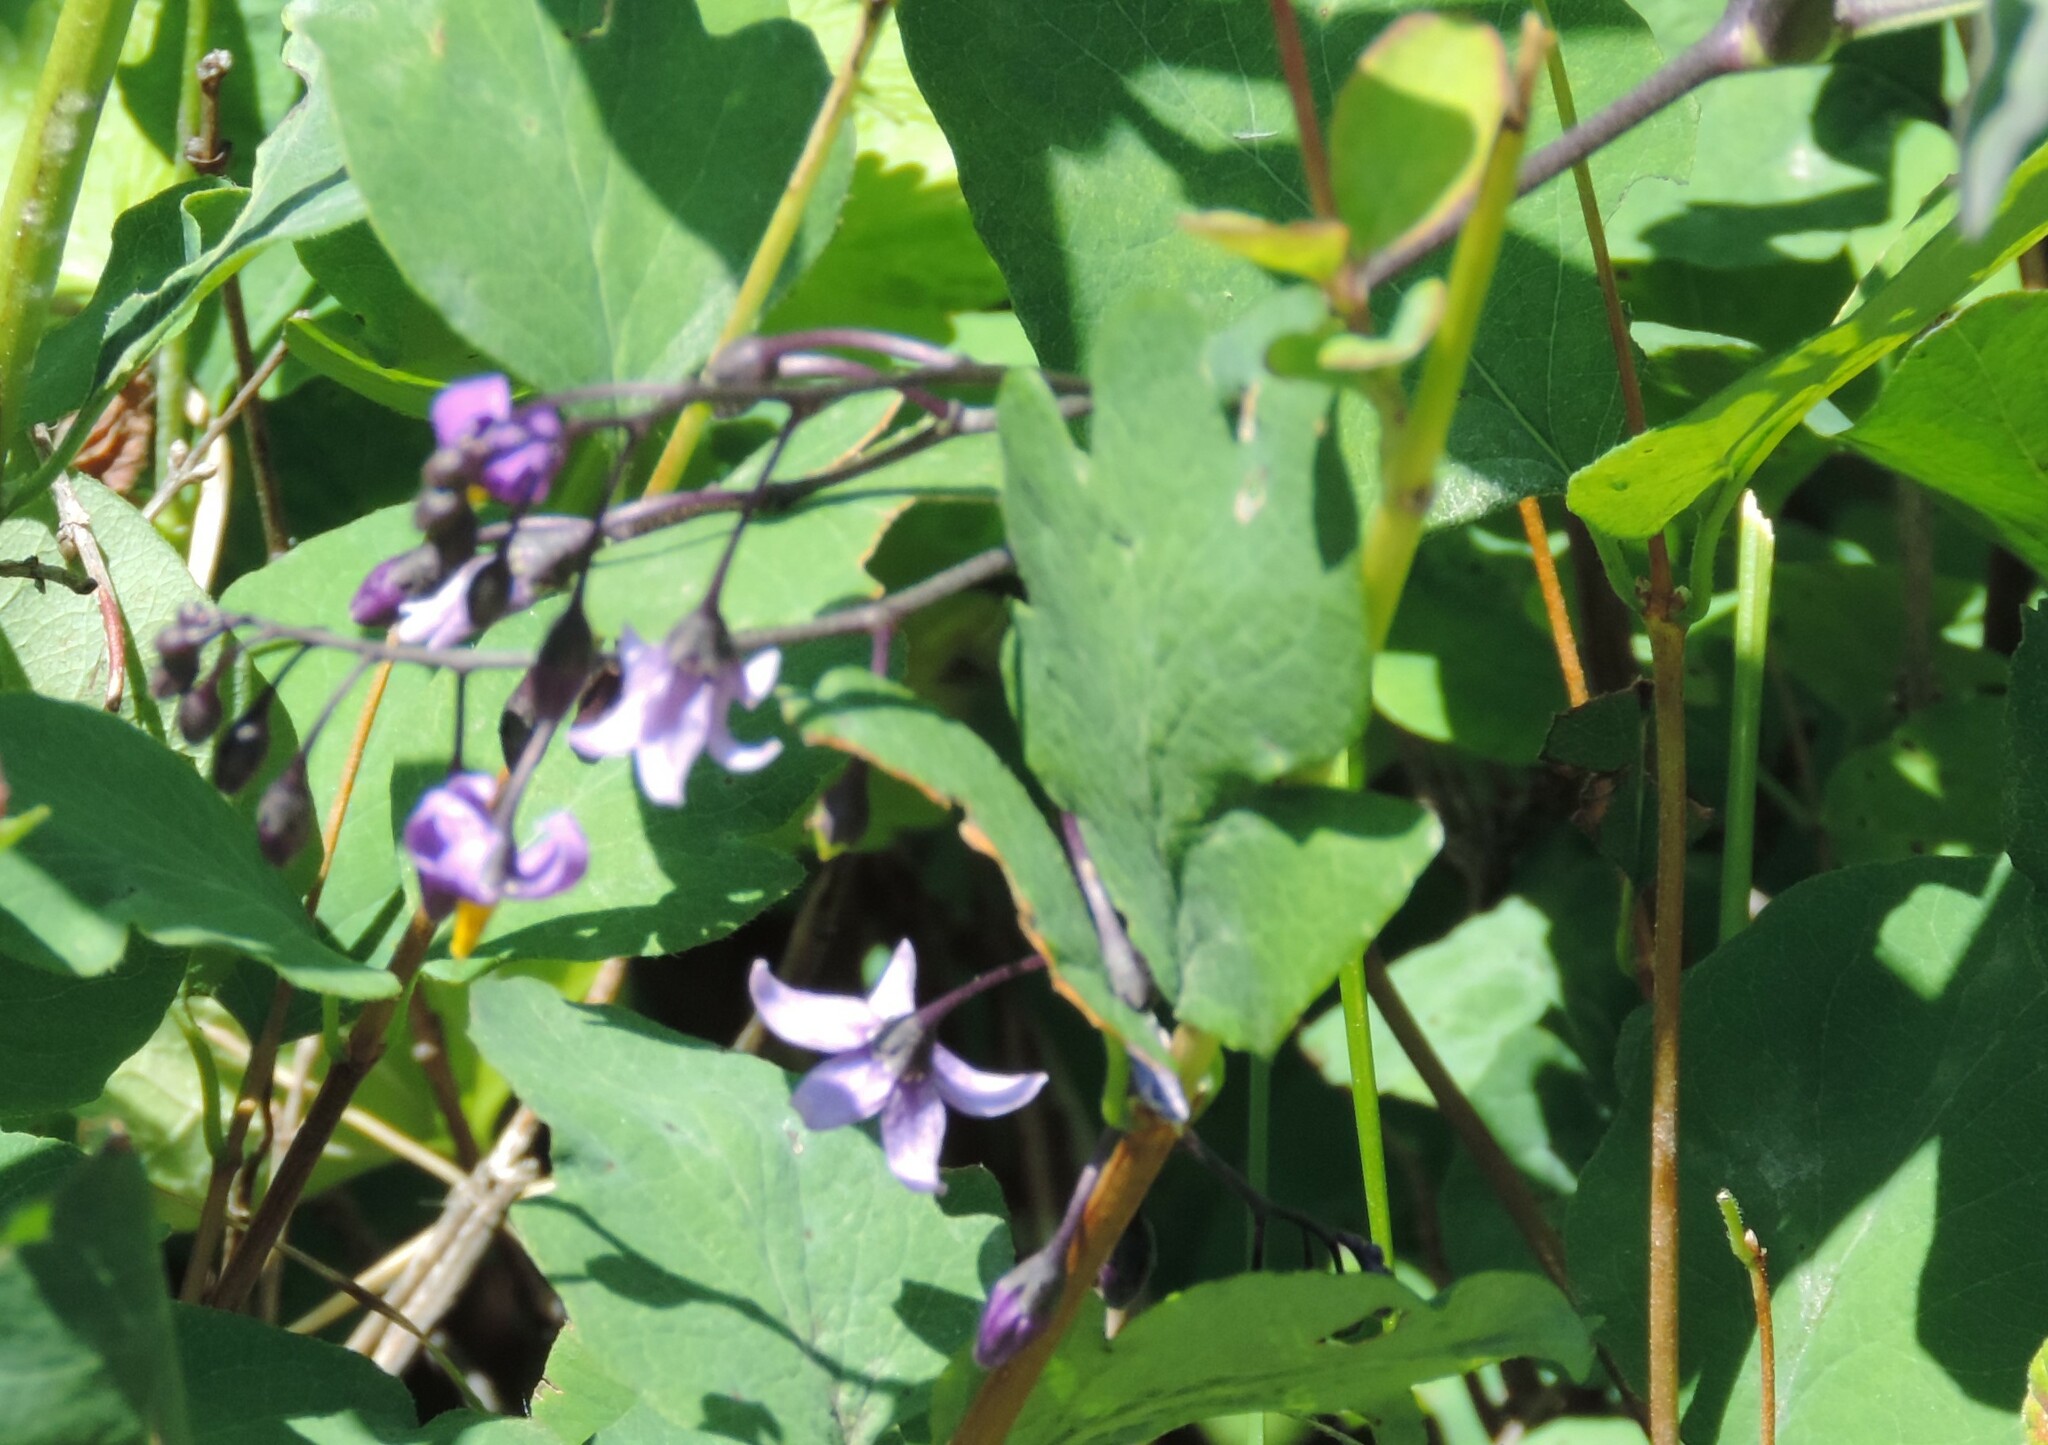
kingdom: Plantae
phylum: Tracheophyta
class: Magnoliopsida
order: Solanales
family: Solanaceae
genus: Solanum
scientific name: Solanum dulcamara
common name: Climbing nightshade
